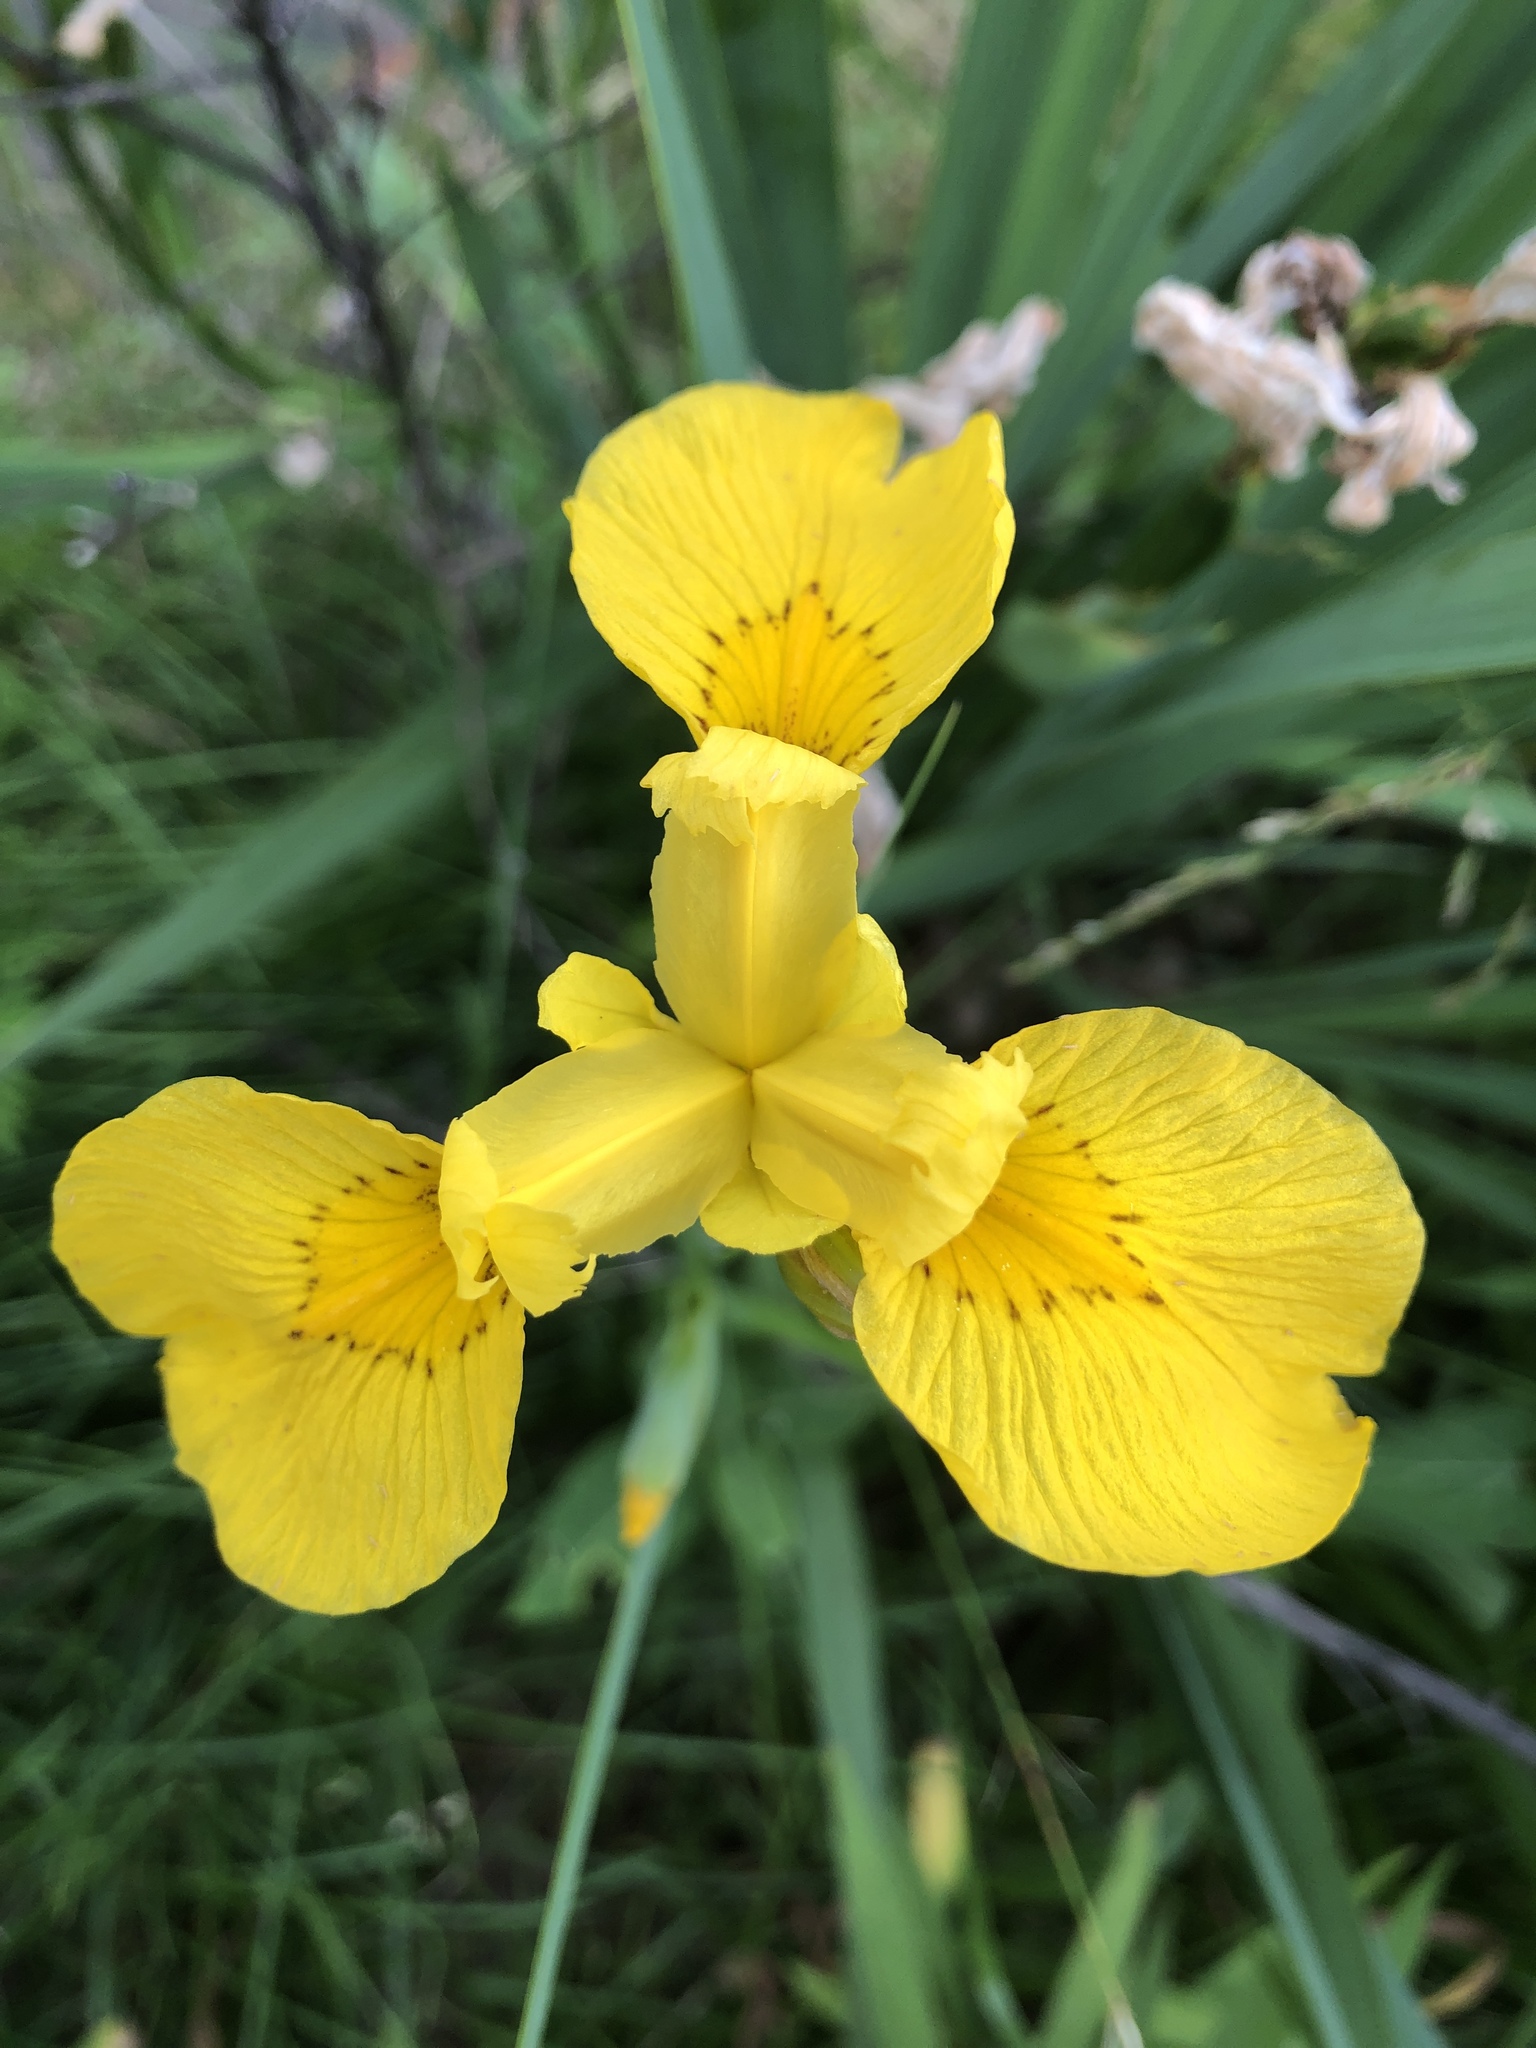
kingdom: Plantae
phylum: Tracheophyta
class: Liliopsida
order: Asparagales
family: Iridaceae
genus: Iris
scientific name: Iris pseudacorus
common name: Yellow flag
